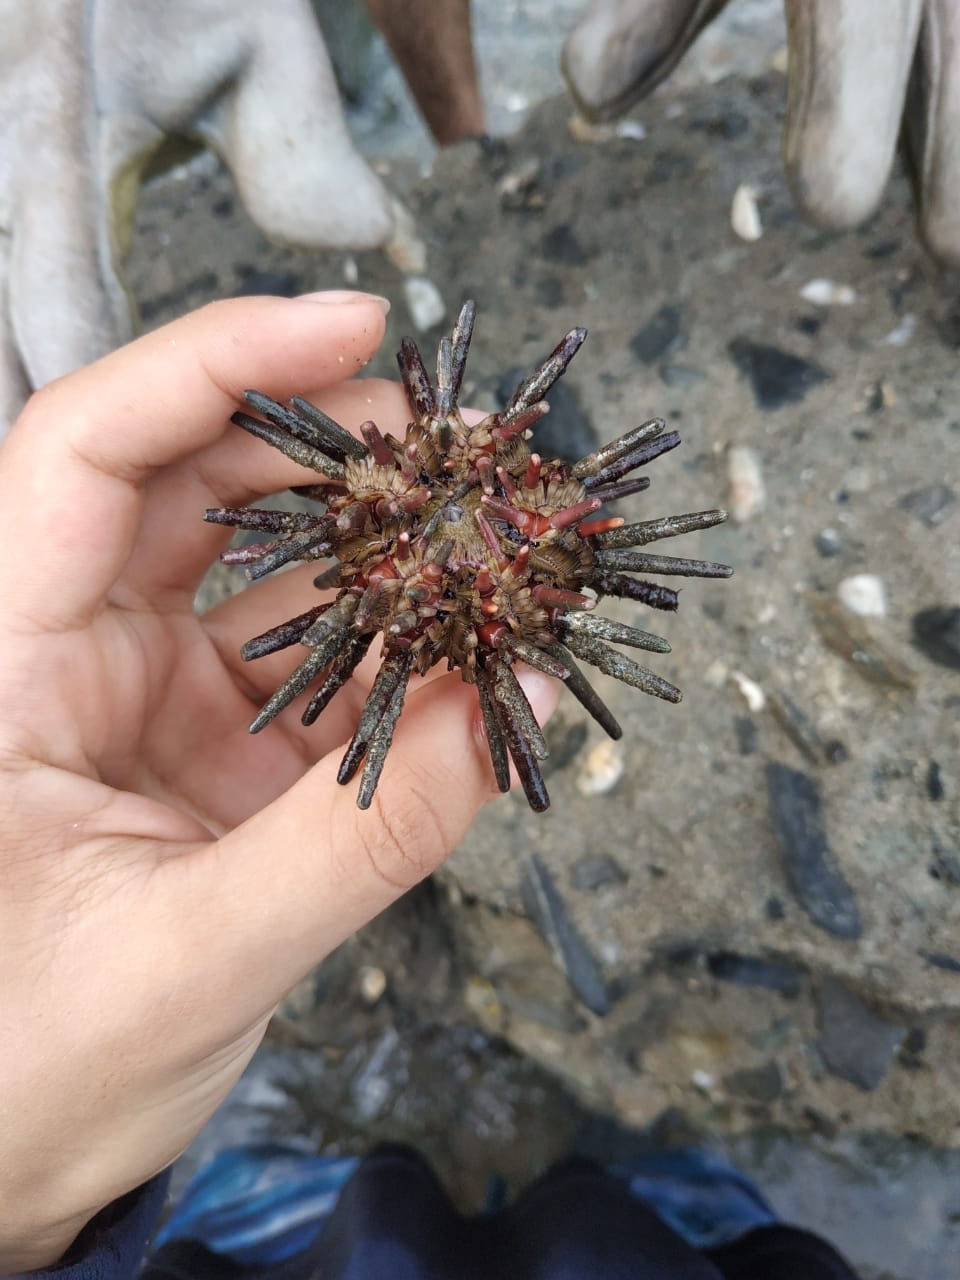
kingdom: Animalia
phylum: Echinodermata
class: Echinoidea
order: Cidaroida
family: Cidaridae
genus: Eucidaris
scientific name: Eucidaris tribuloides
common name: Slate pencil urchin
